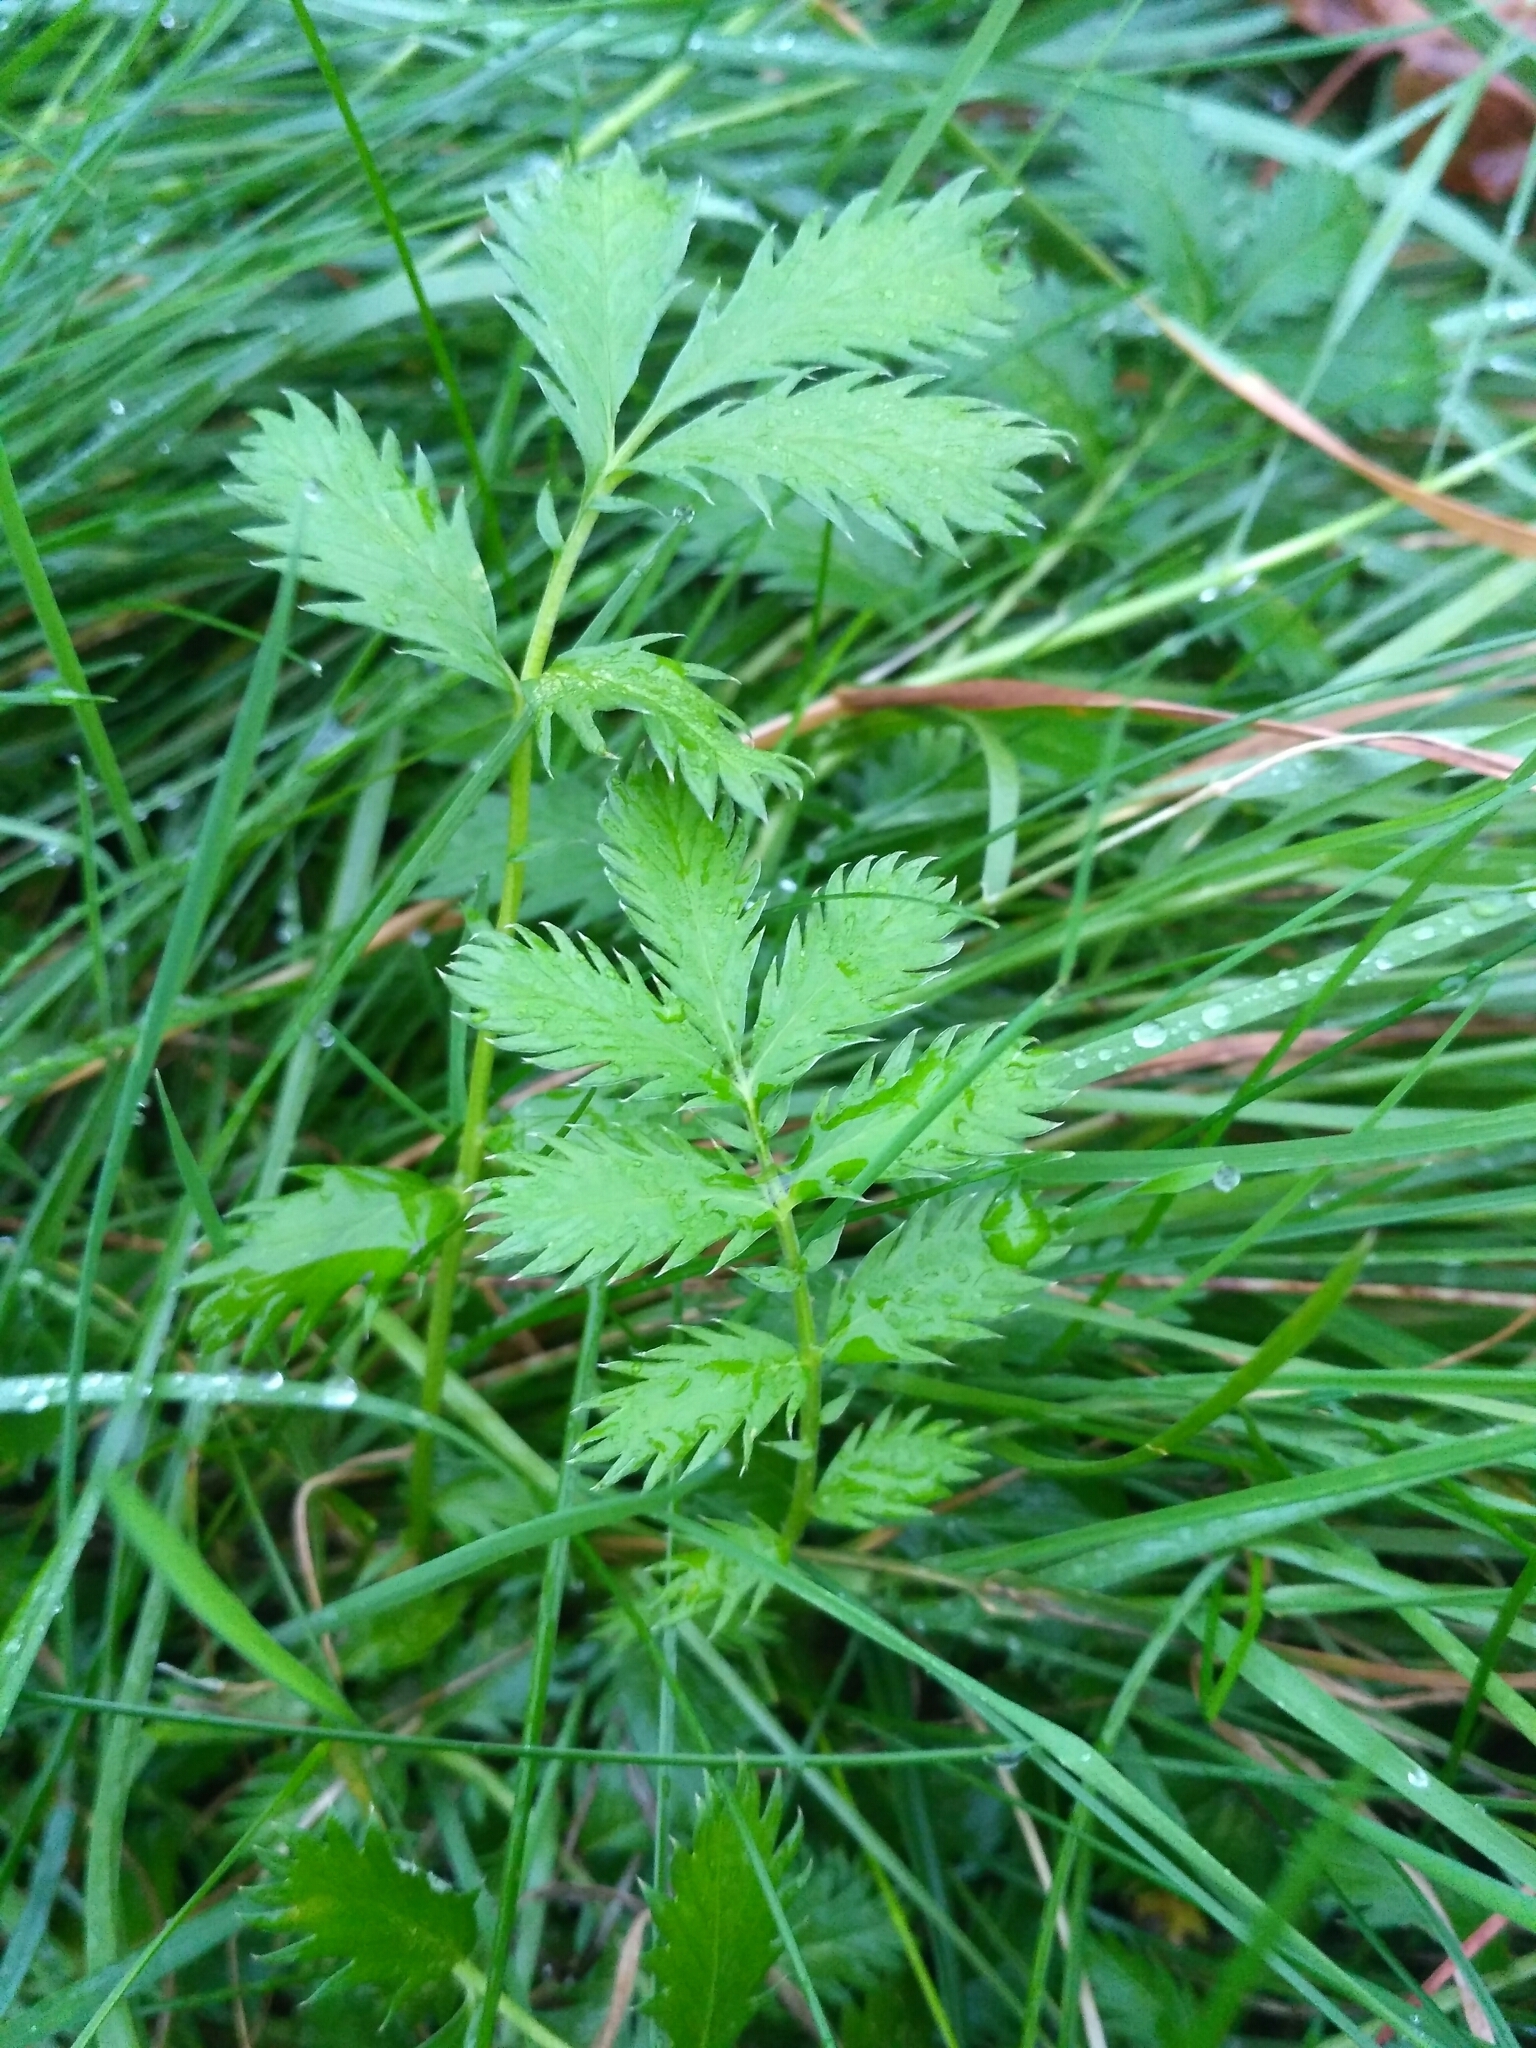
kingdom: Plantae
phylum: Tracheophyta
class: Magnoliopsida
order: Rosales
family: Rosaceae
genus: Argentina
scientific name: Argentina anserina
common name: Common silverweed
